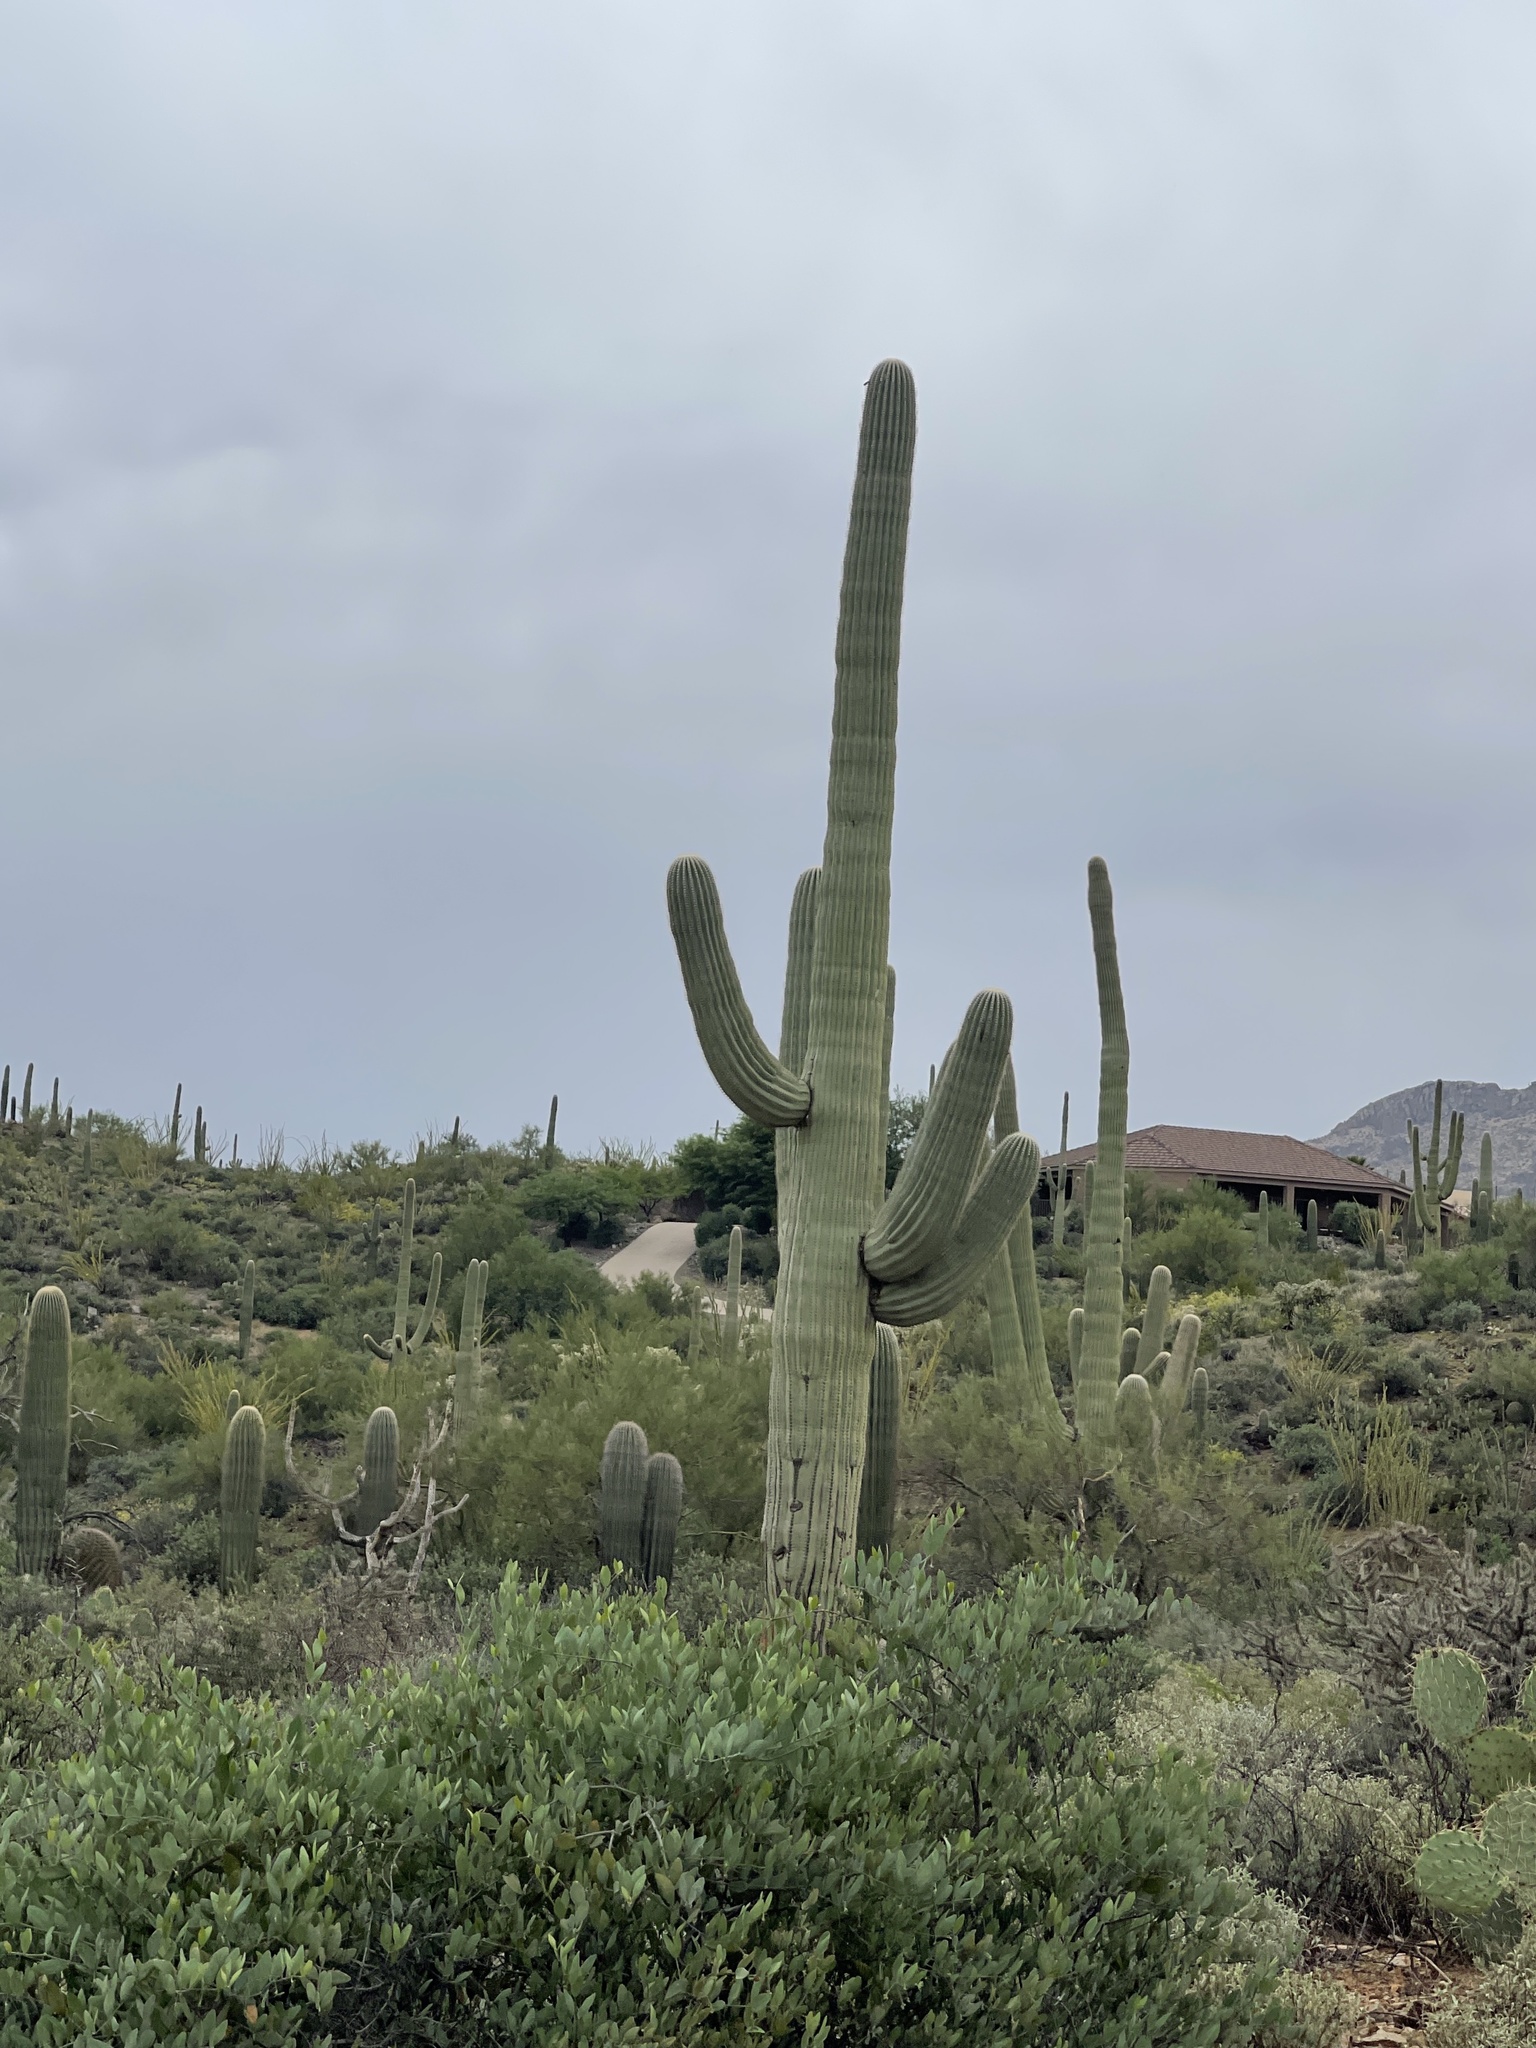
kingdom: Plantae
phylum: Tracheophyta
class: Magnoliopsida
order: Caryophyllales
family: Cactaceae
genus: Carnegiea
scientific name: Carnegiea gigantea
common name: Saguaro
